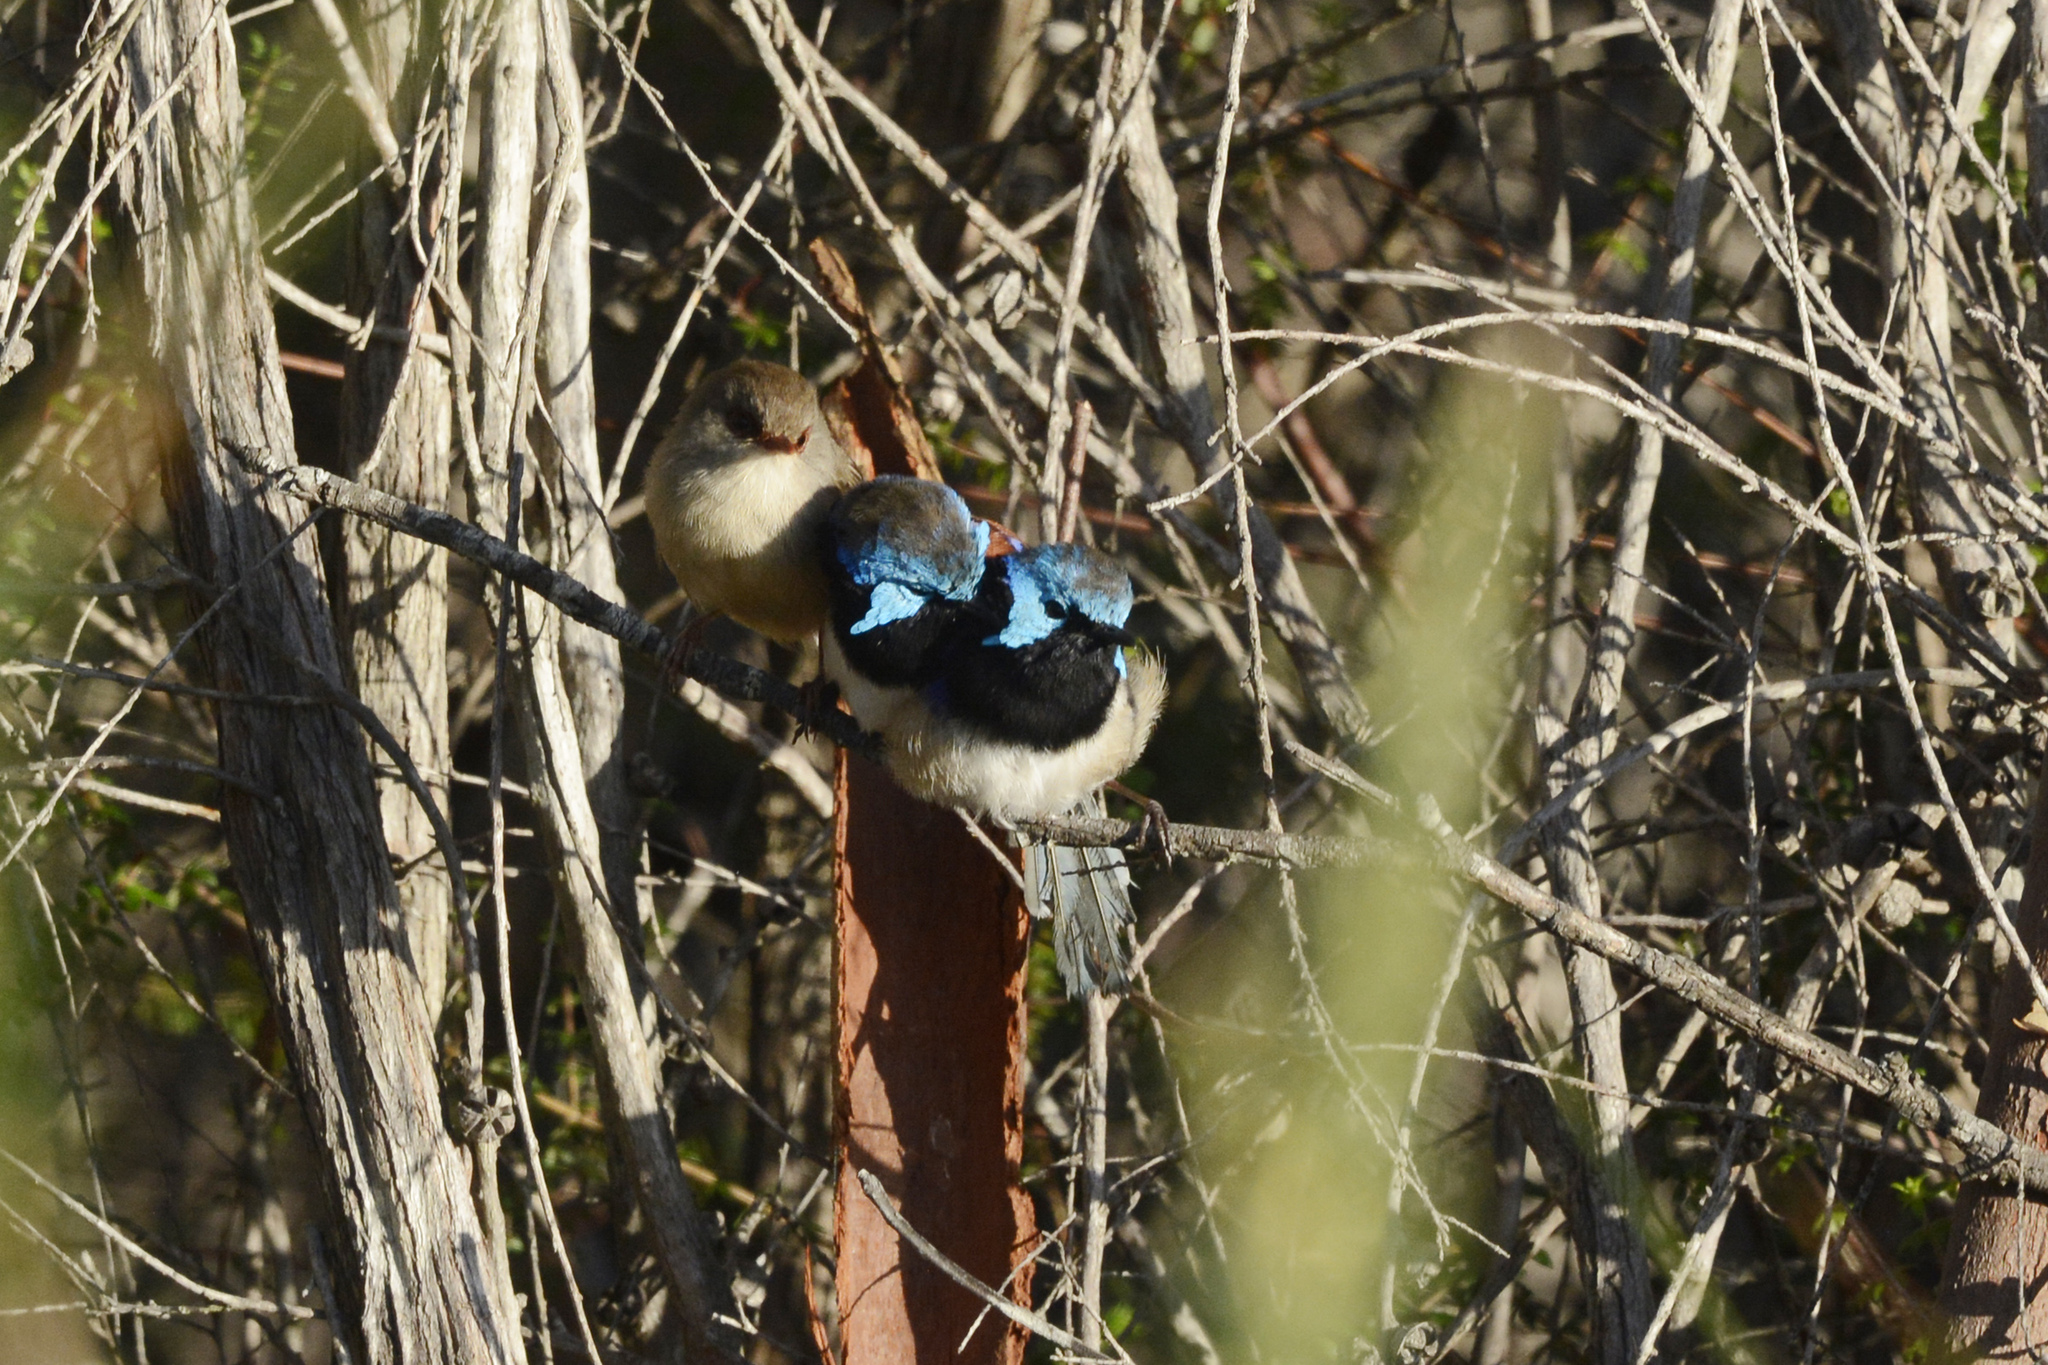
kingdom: Animalia
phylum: Chordata
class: Aves
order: Passeriformes
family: Maluridae
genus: Malurus
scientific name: Malurus lamberti
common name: Variegated fairywren
